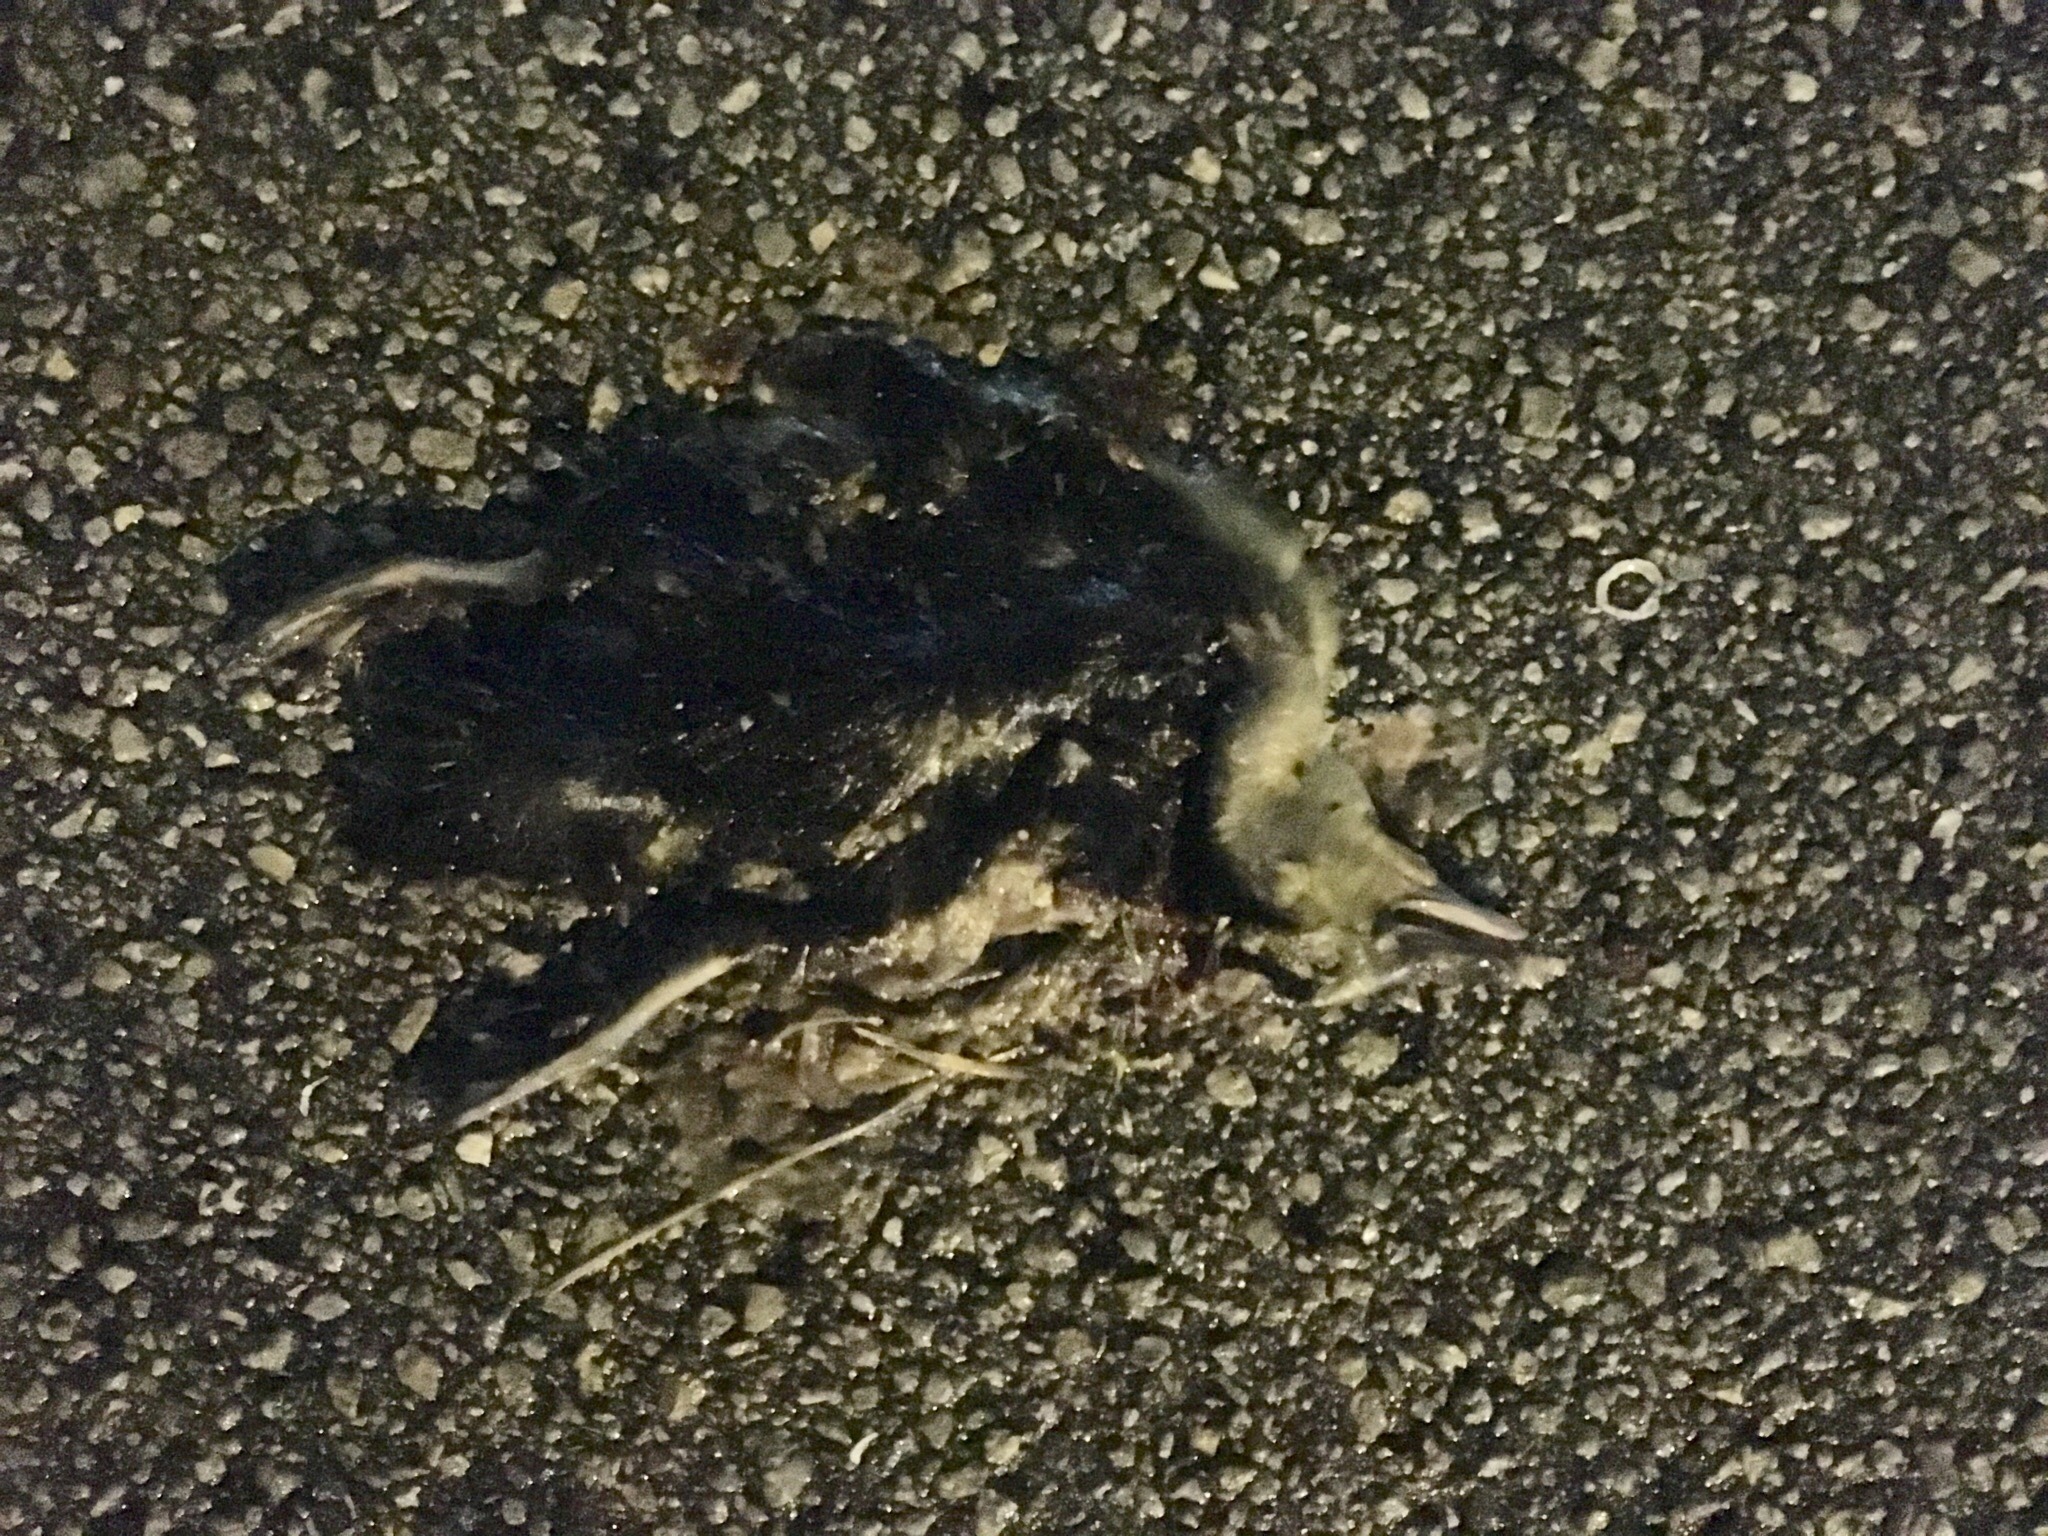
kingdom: Animalia
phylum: Chordata
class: Aves
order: Anseriformes
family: Anatidae
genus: Cairina
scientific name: Cairina moschata
